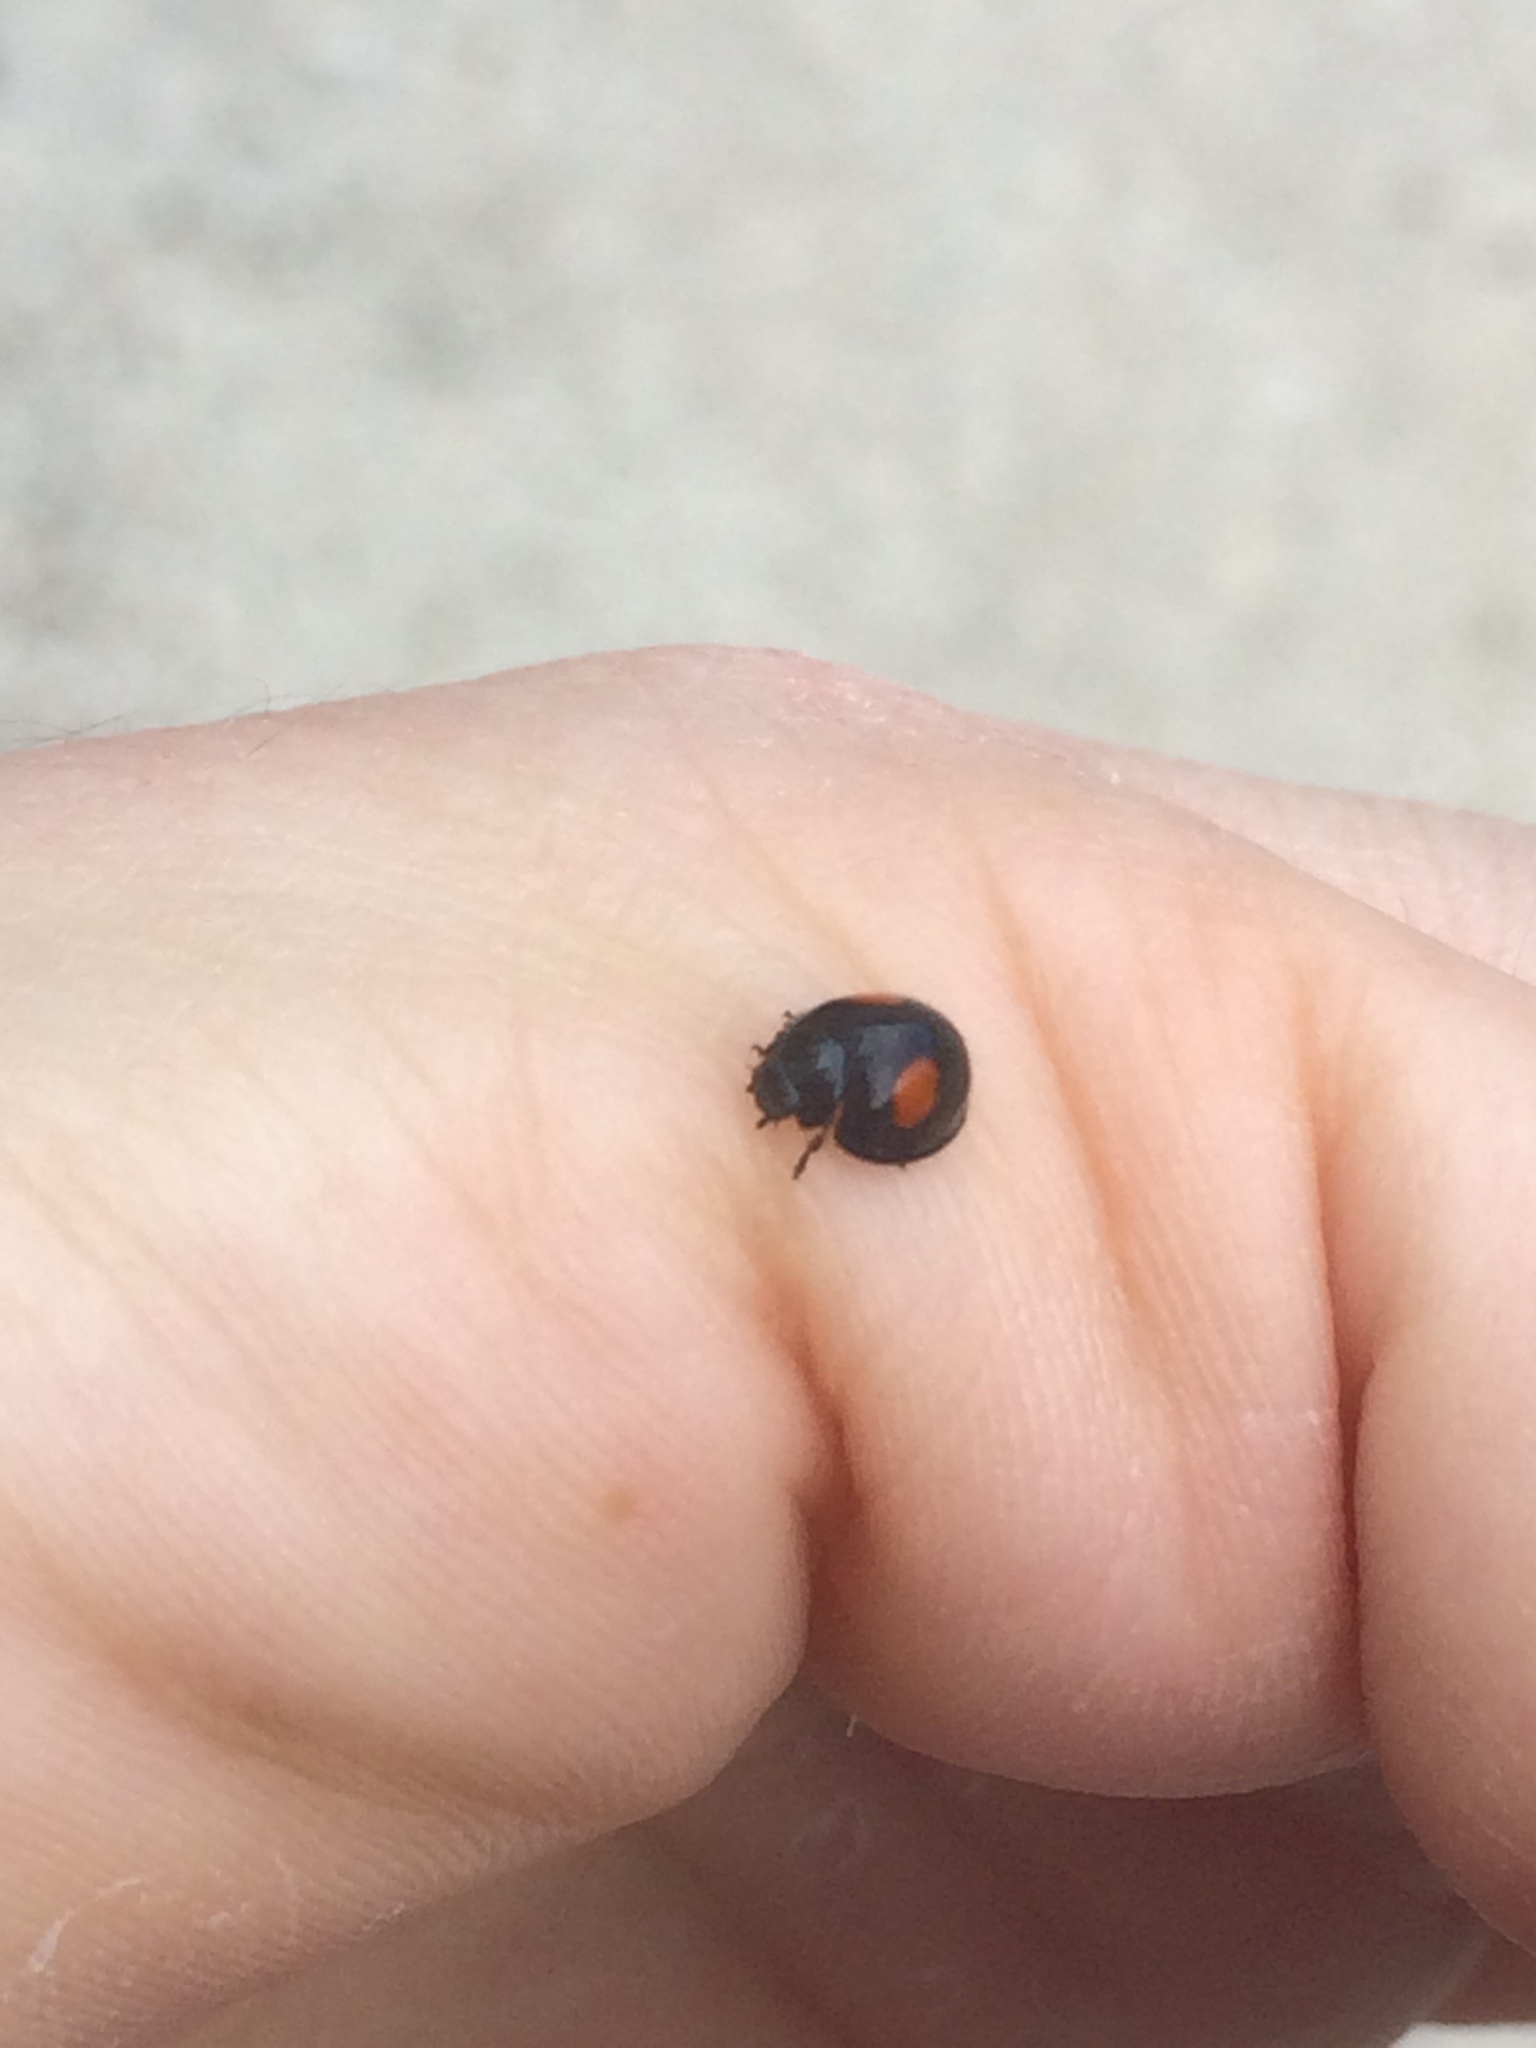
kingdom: Animalia
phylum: Arthropoda
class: Insecta
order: Coleoptera
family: Coccinellidae
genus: Chilocorus
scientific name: Chilocorus cacti
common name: Cactus lady beetle
